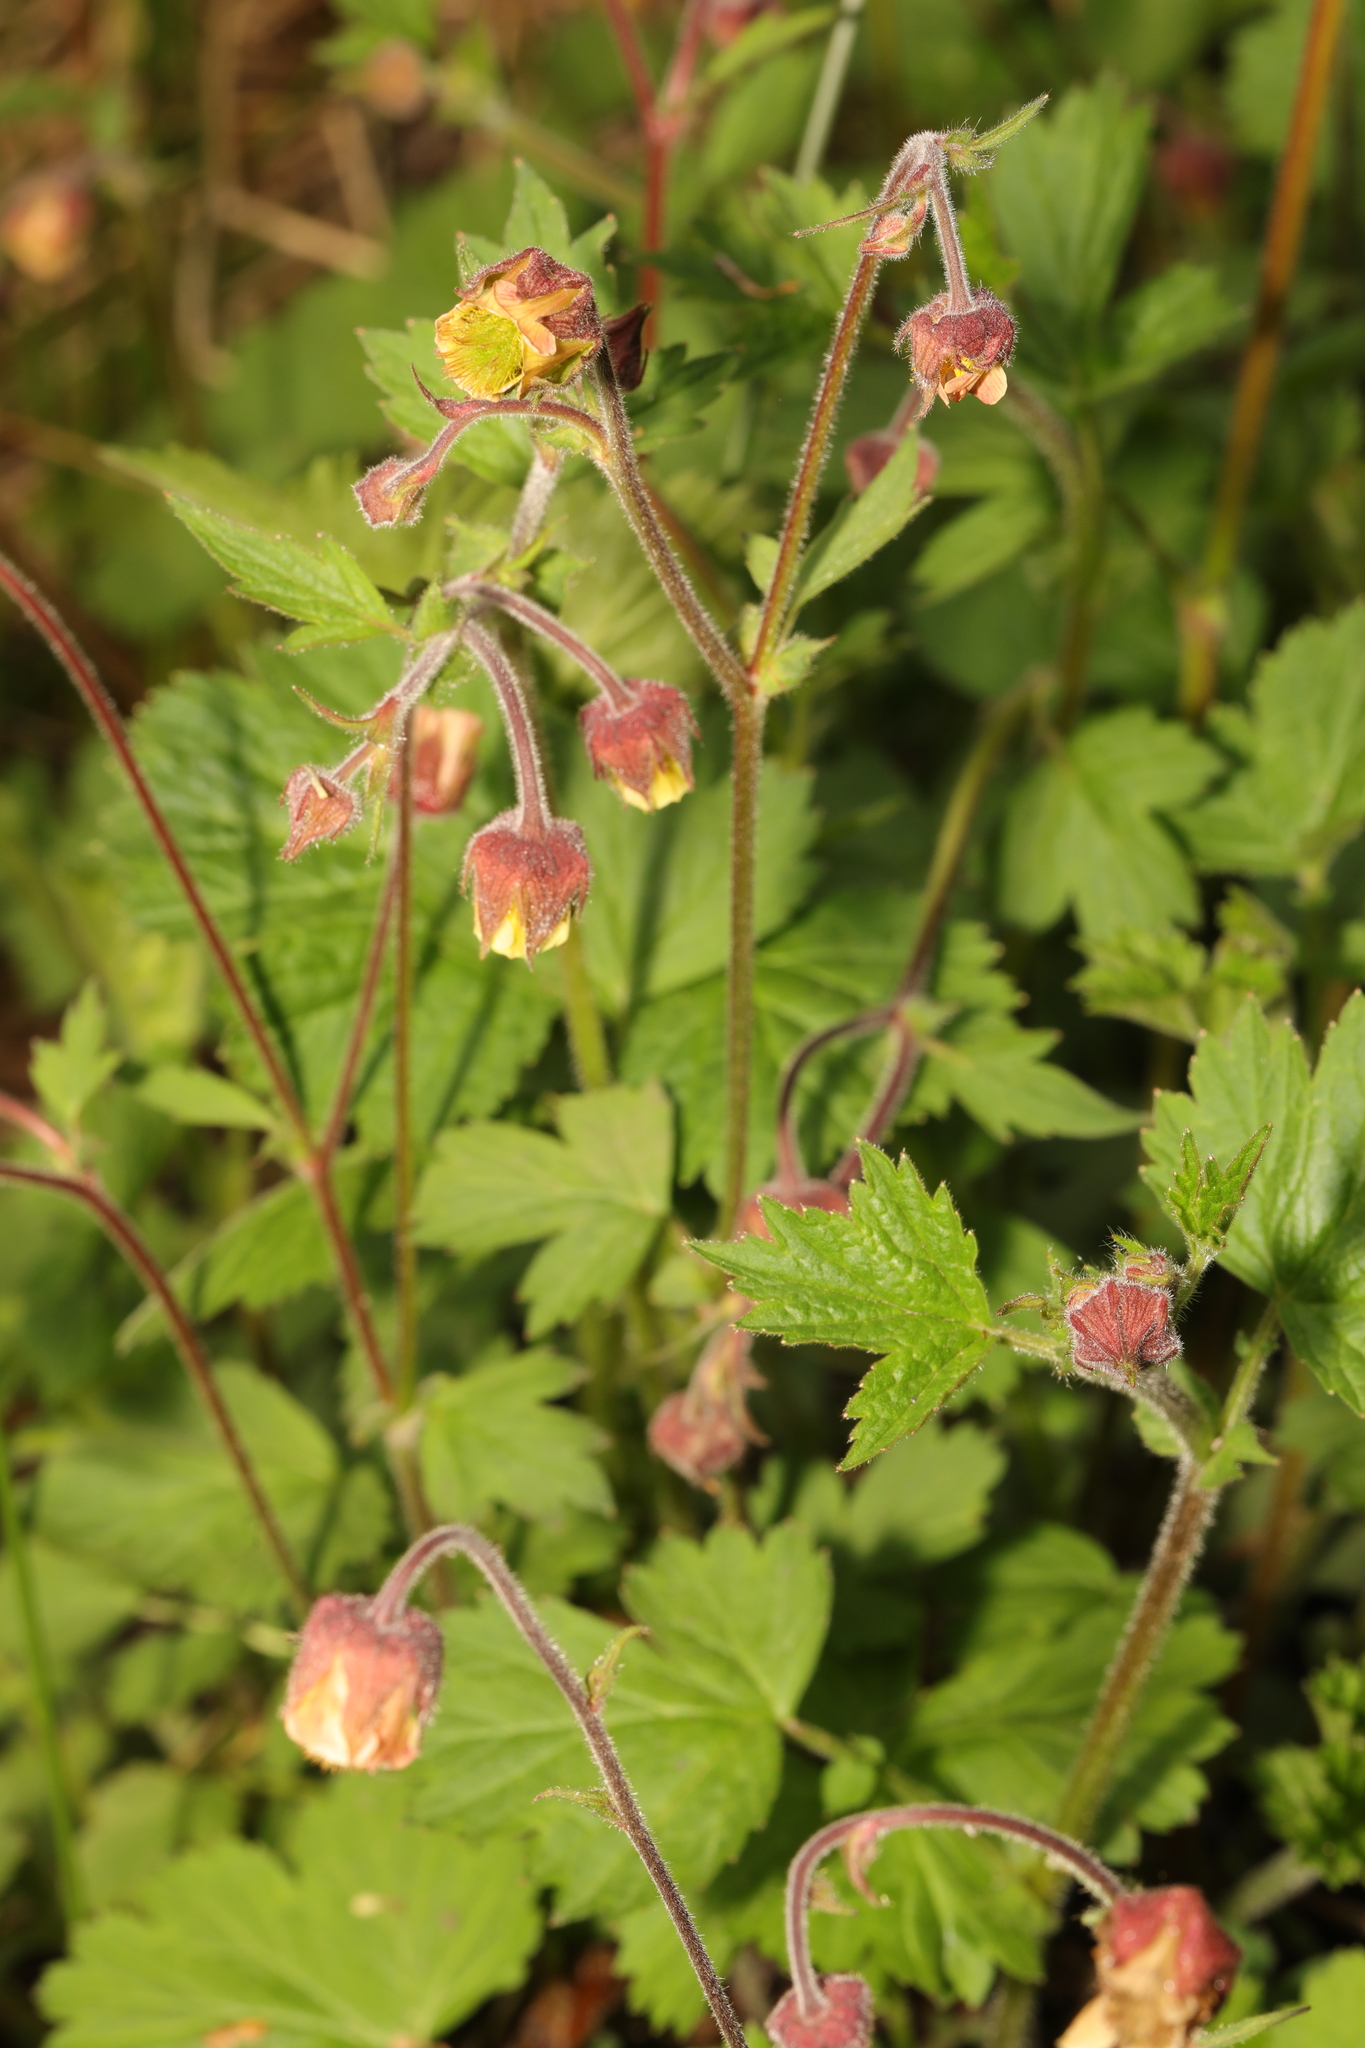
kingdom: Plantae
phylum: Tracheophyta
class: Magnoliopsida
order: Rosales
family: Rosaceae
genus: Geum
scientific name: Geum rivale
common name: Water avens
